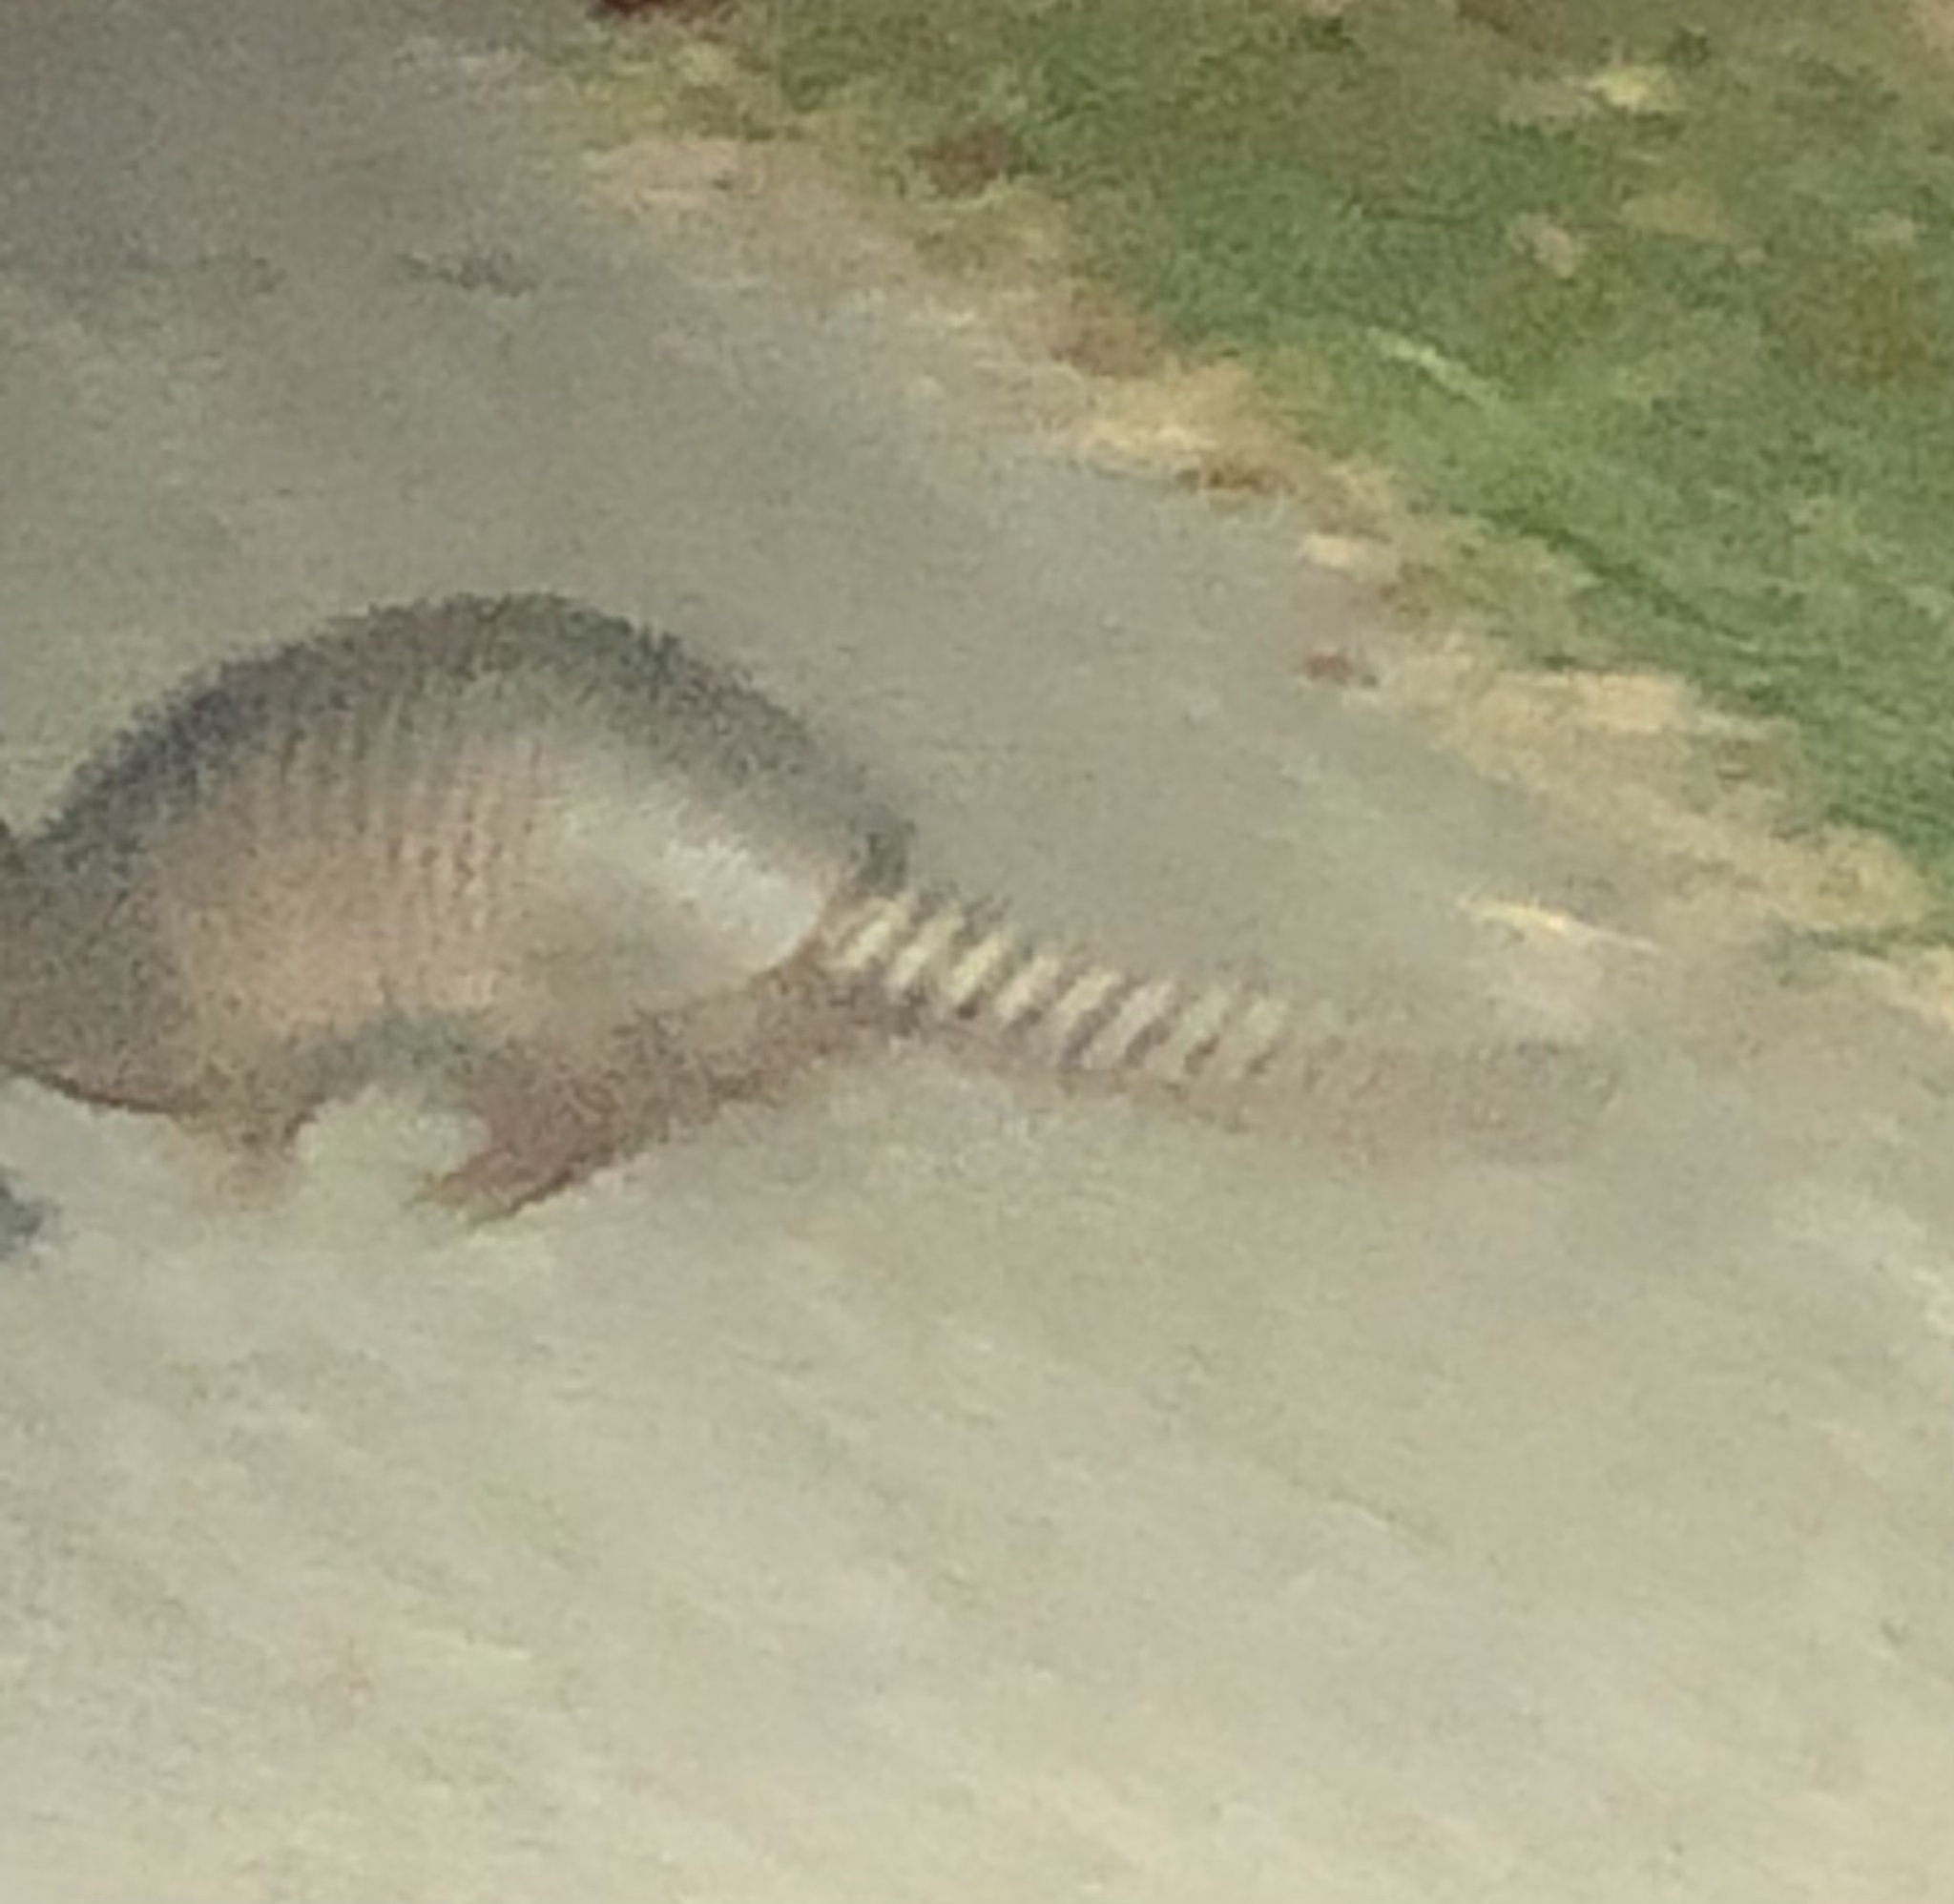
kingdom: Animalia
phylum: Chordata
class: Mammalia
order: Cingulata
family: Dasypodidae
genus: Dasypus
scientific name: Dasypus novemcinctus
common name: Nine-banded armadillo
